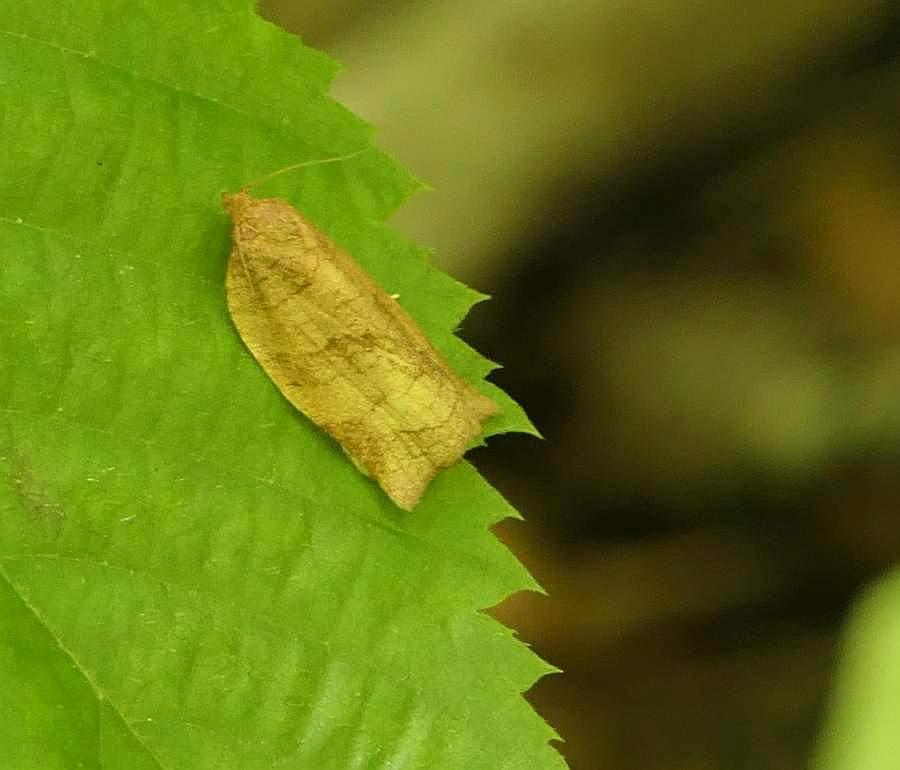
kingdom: Animalia
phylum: Arthropoda
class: Insecta
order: Lepidoptera
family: Tortricidae
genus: Choristoneura
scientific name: Choristoneura rosaceana
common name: Oblique-banded leafroller moth
